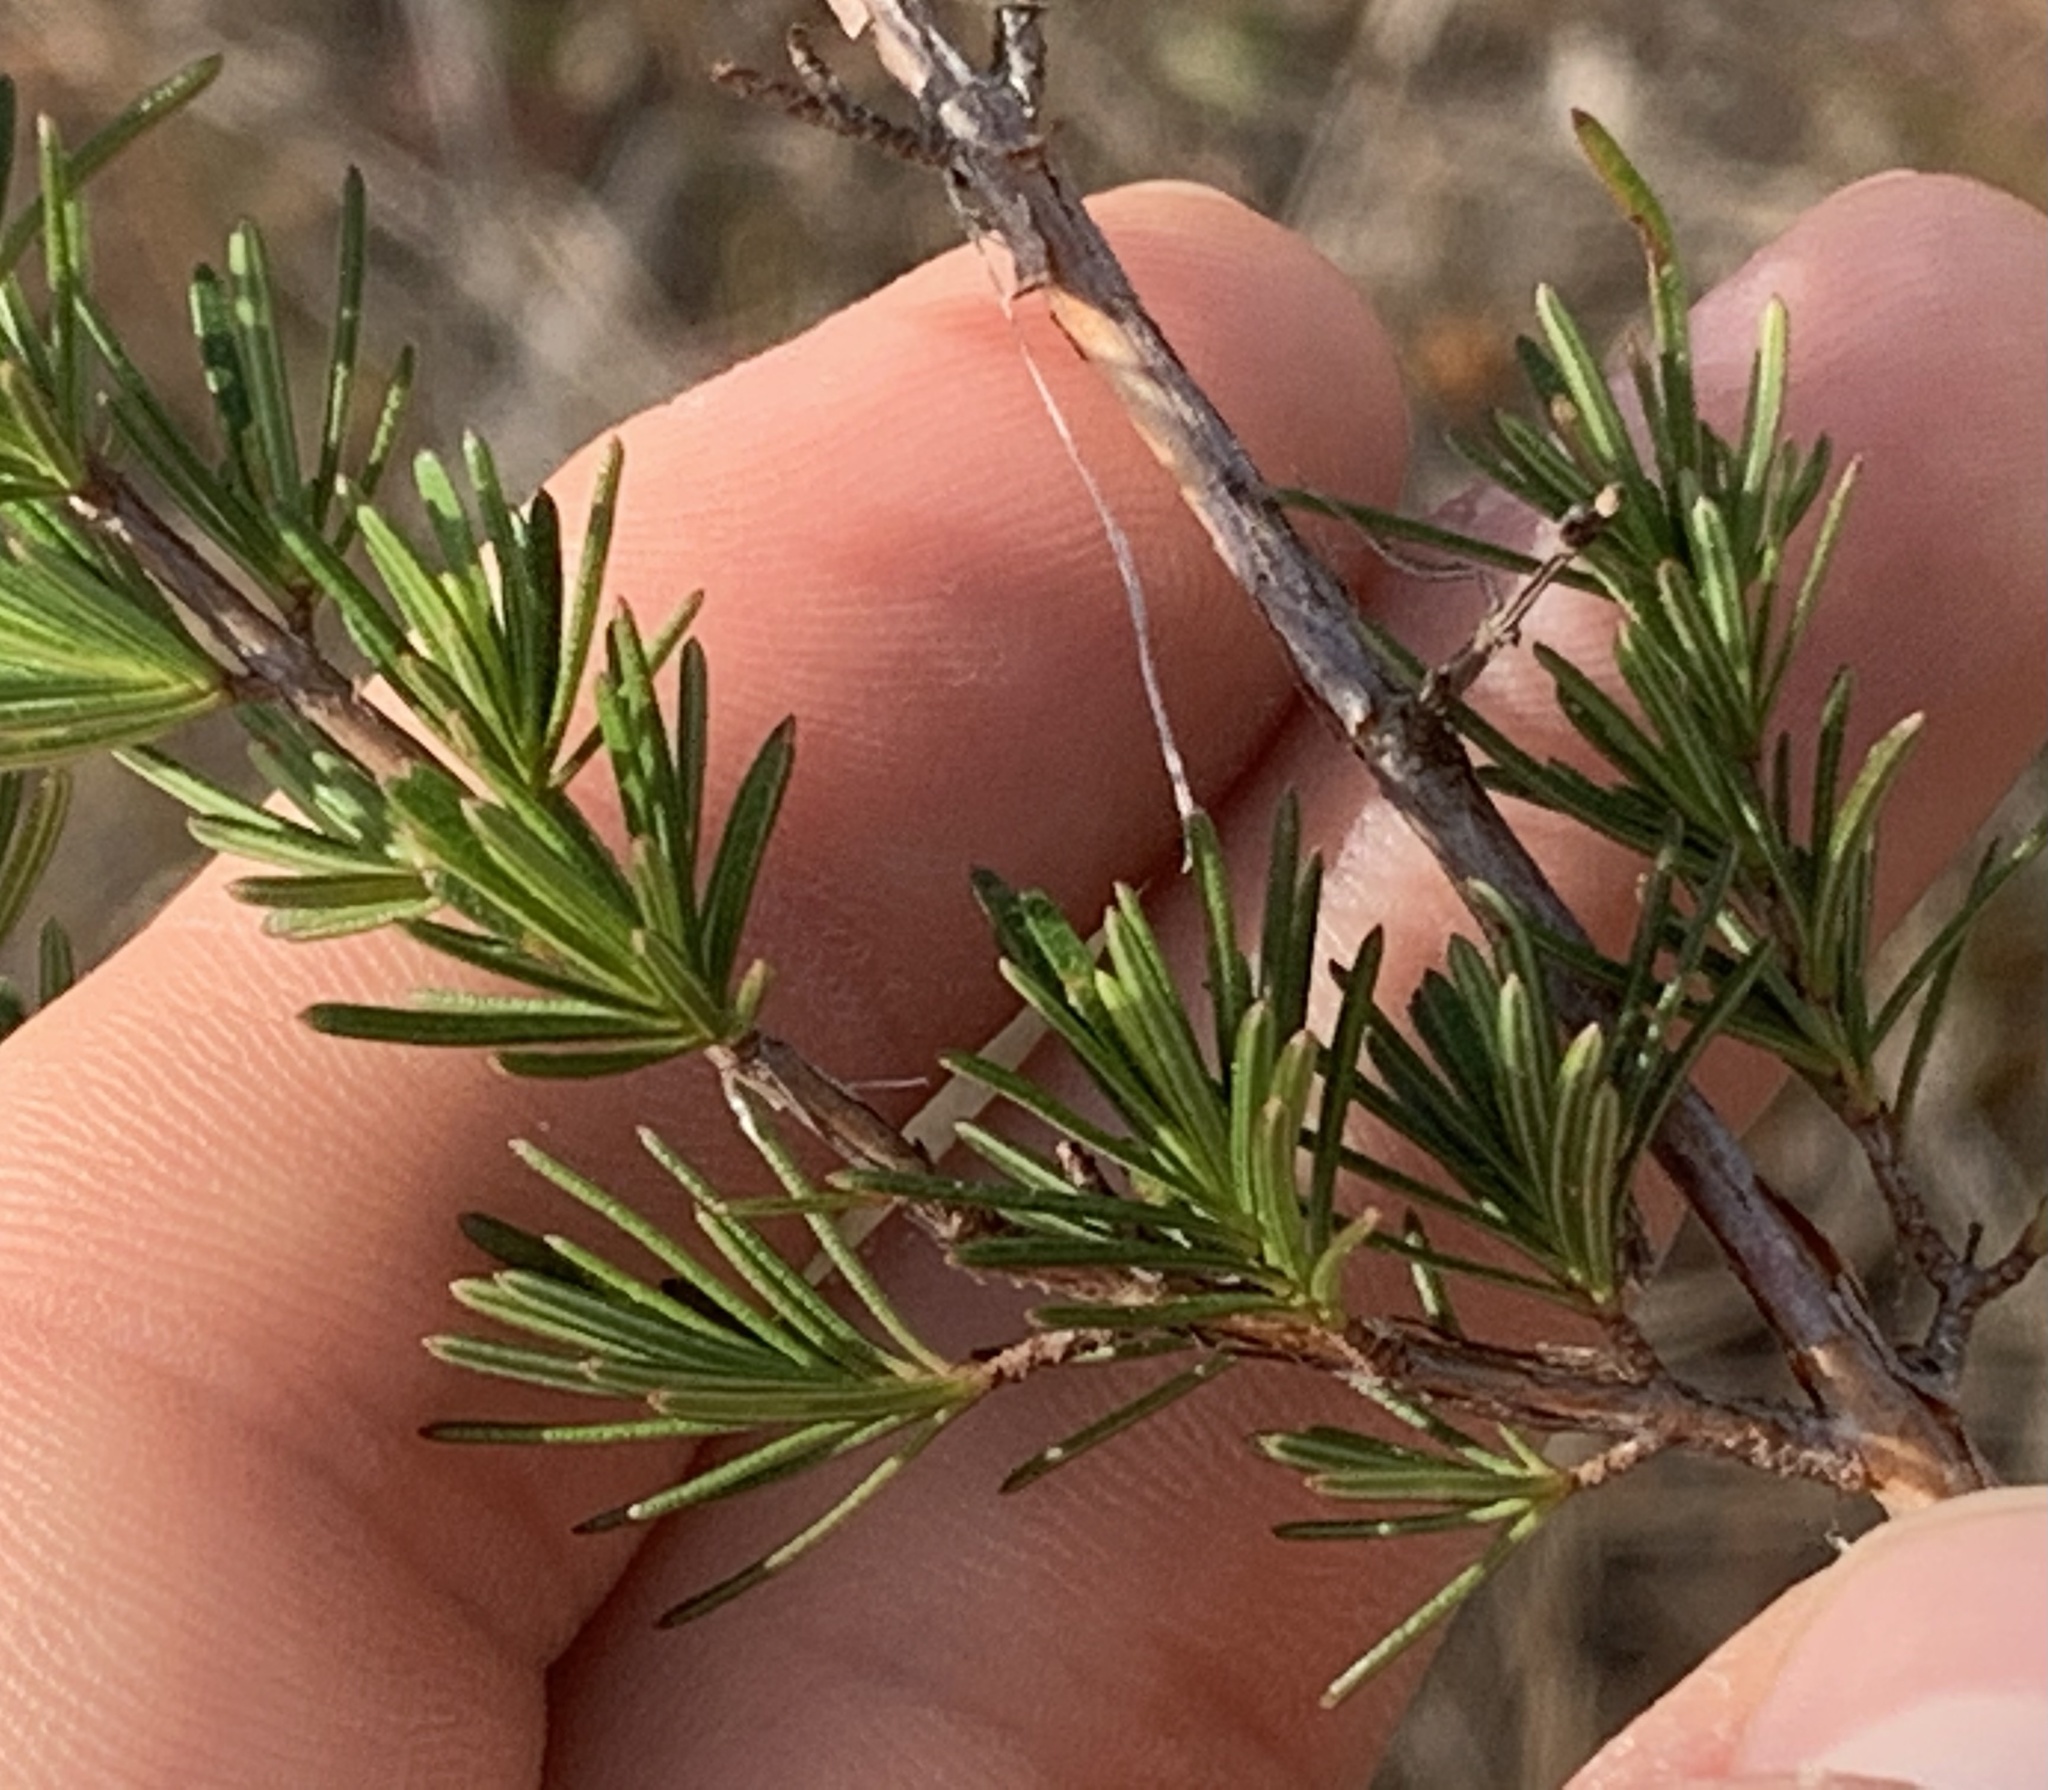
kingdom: Plantae
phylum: Tracheophyta
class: Magnoliopsida
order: Malpighiales
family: Hypericaceae
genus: Hypericum
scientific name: Hypericum fasciculatum
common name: Peelbark st. john's wort
